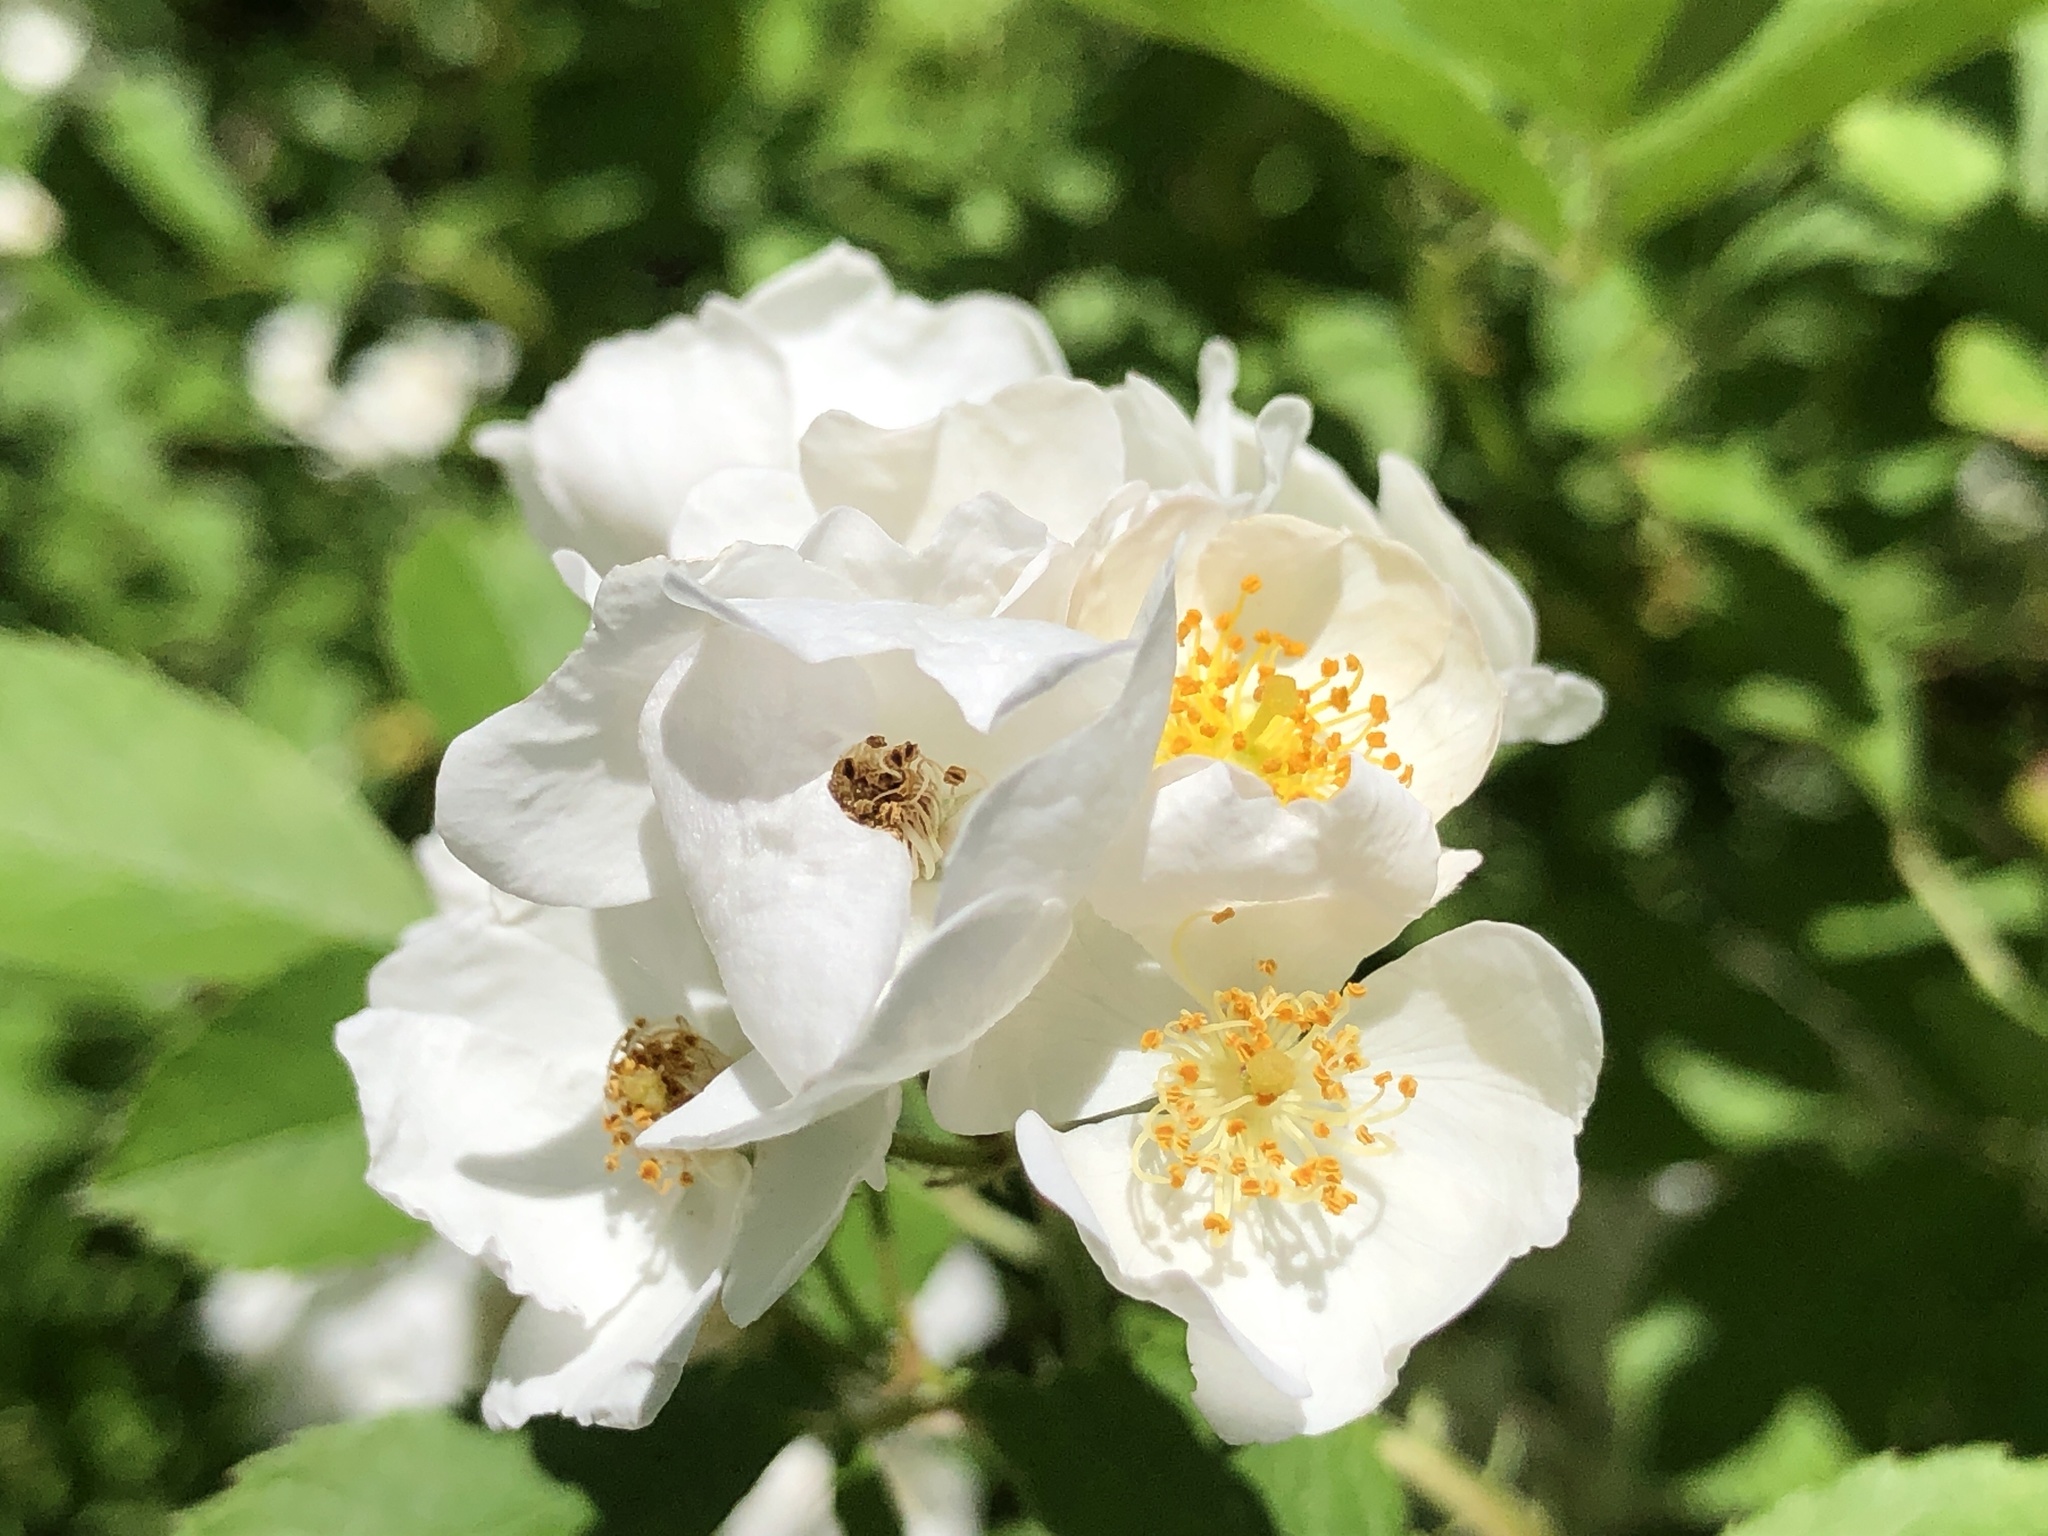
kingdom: Plantae
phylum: Tracheophyta
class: Magnoliopsida
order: Rosales
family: Rosaceae
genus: Rosa
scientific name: Rosa multiflora
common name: Multiflora rose
